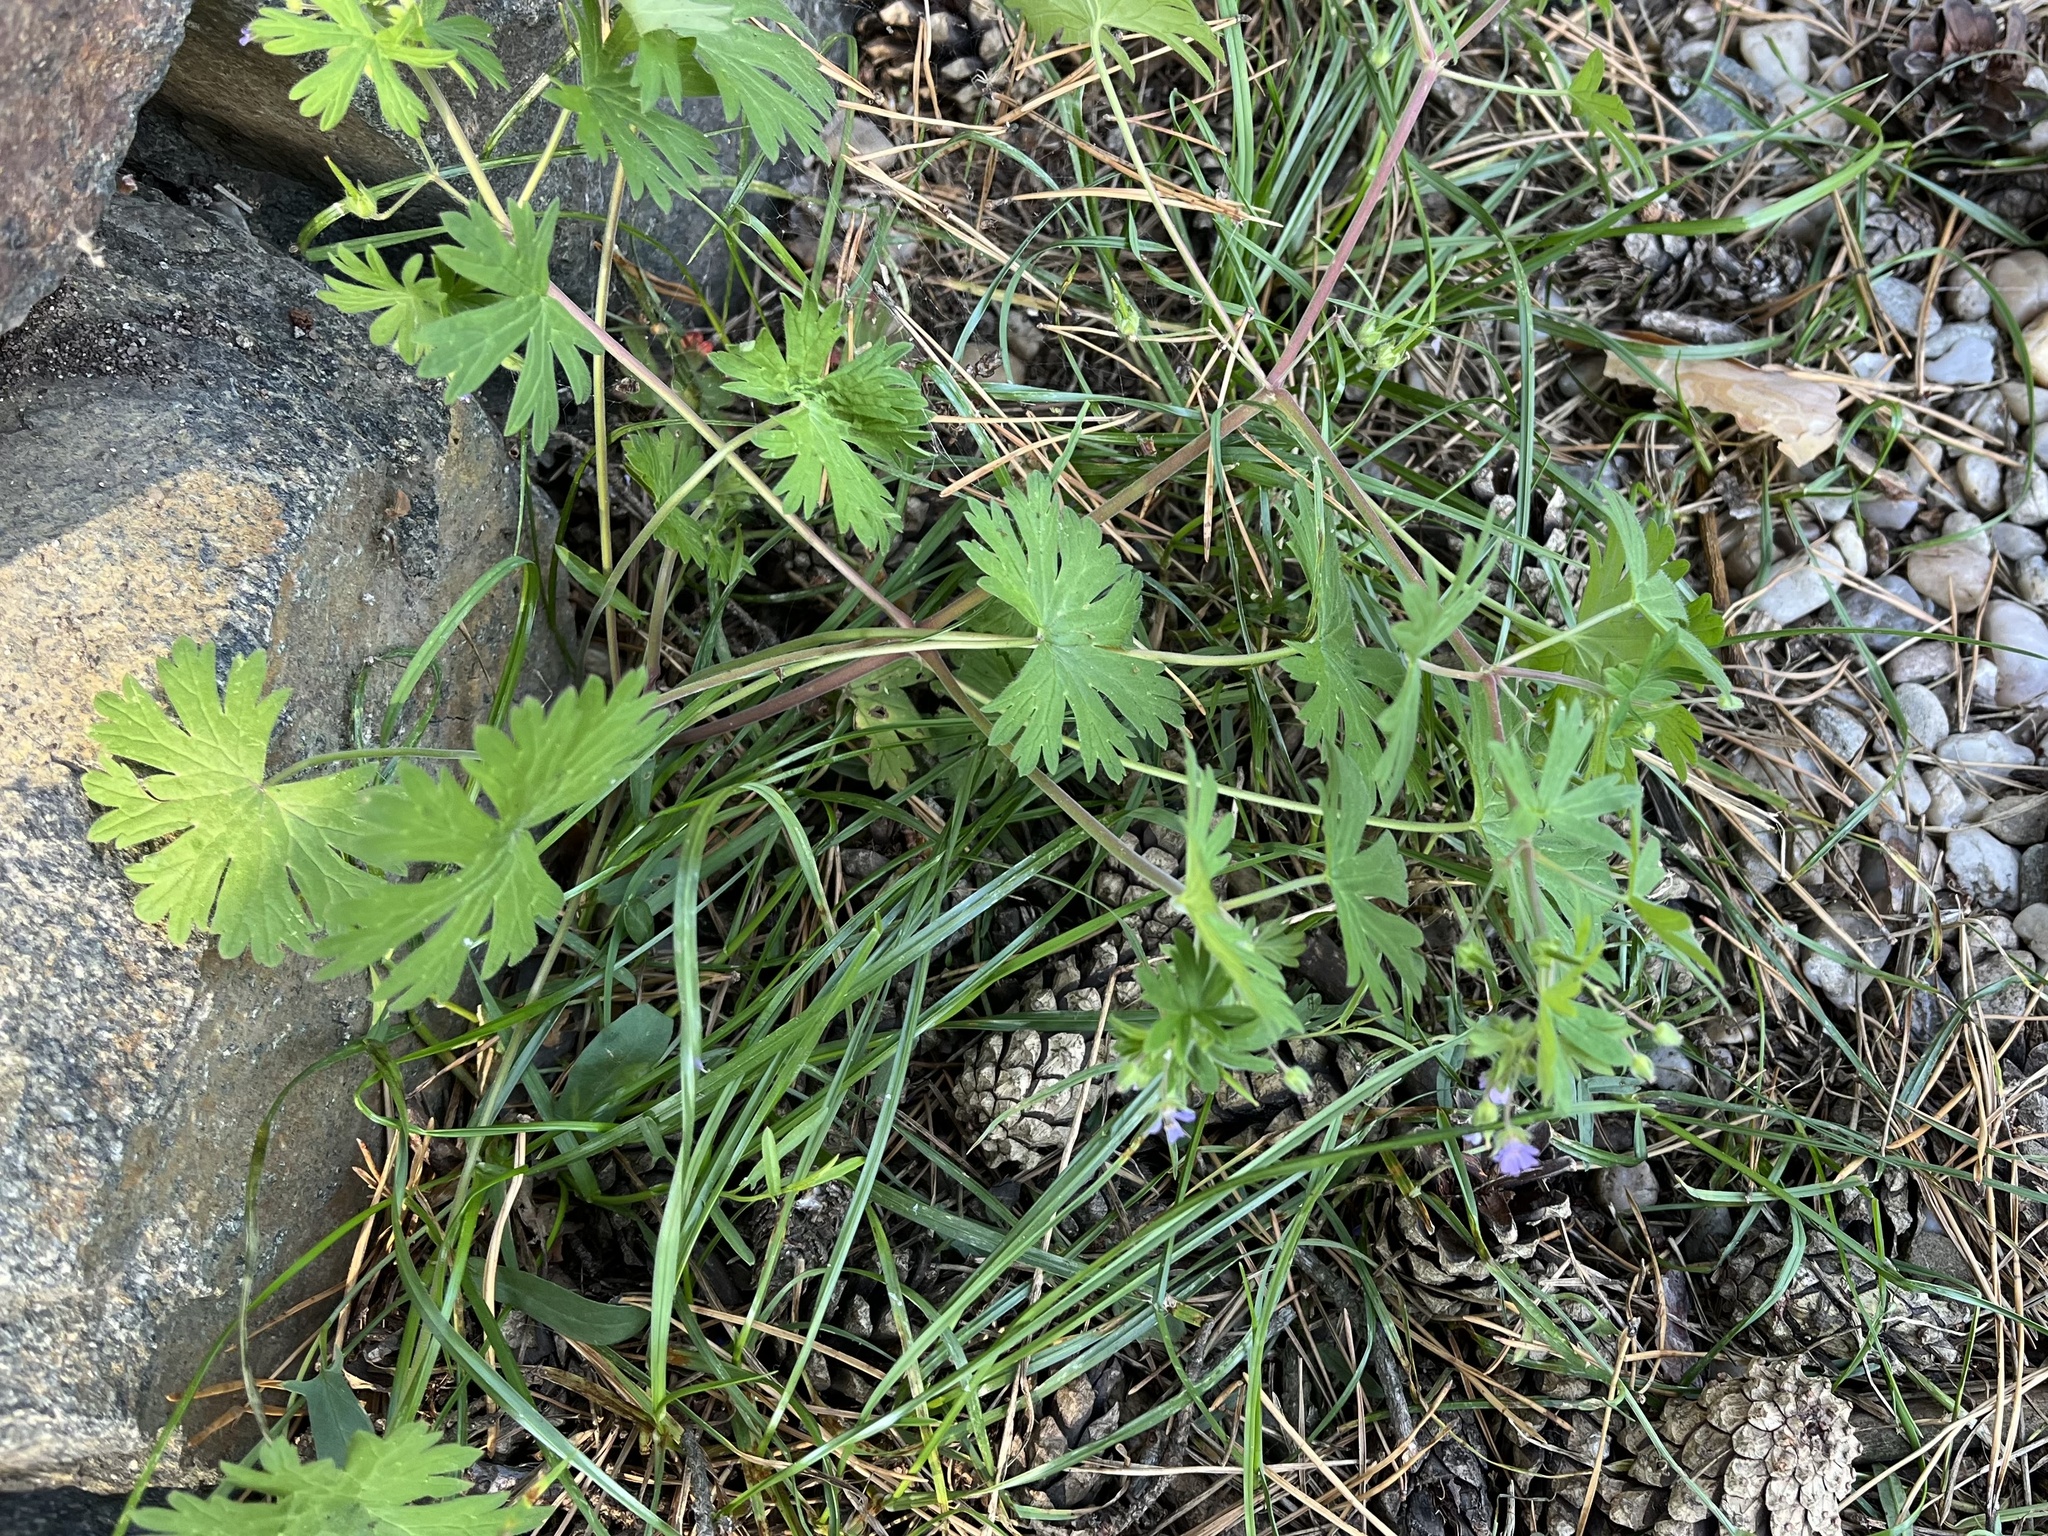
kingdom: Plantae
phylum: Tracheophyta
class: Magnoliopsida
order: Geraniales
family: Geraniaceae
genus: Geranium
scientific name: Geranium pusillum
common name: Small geranium
